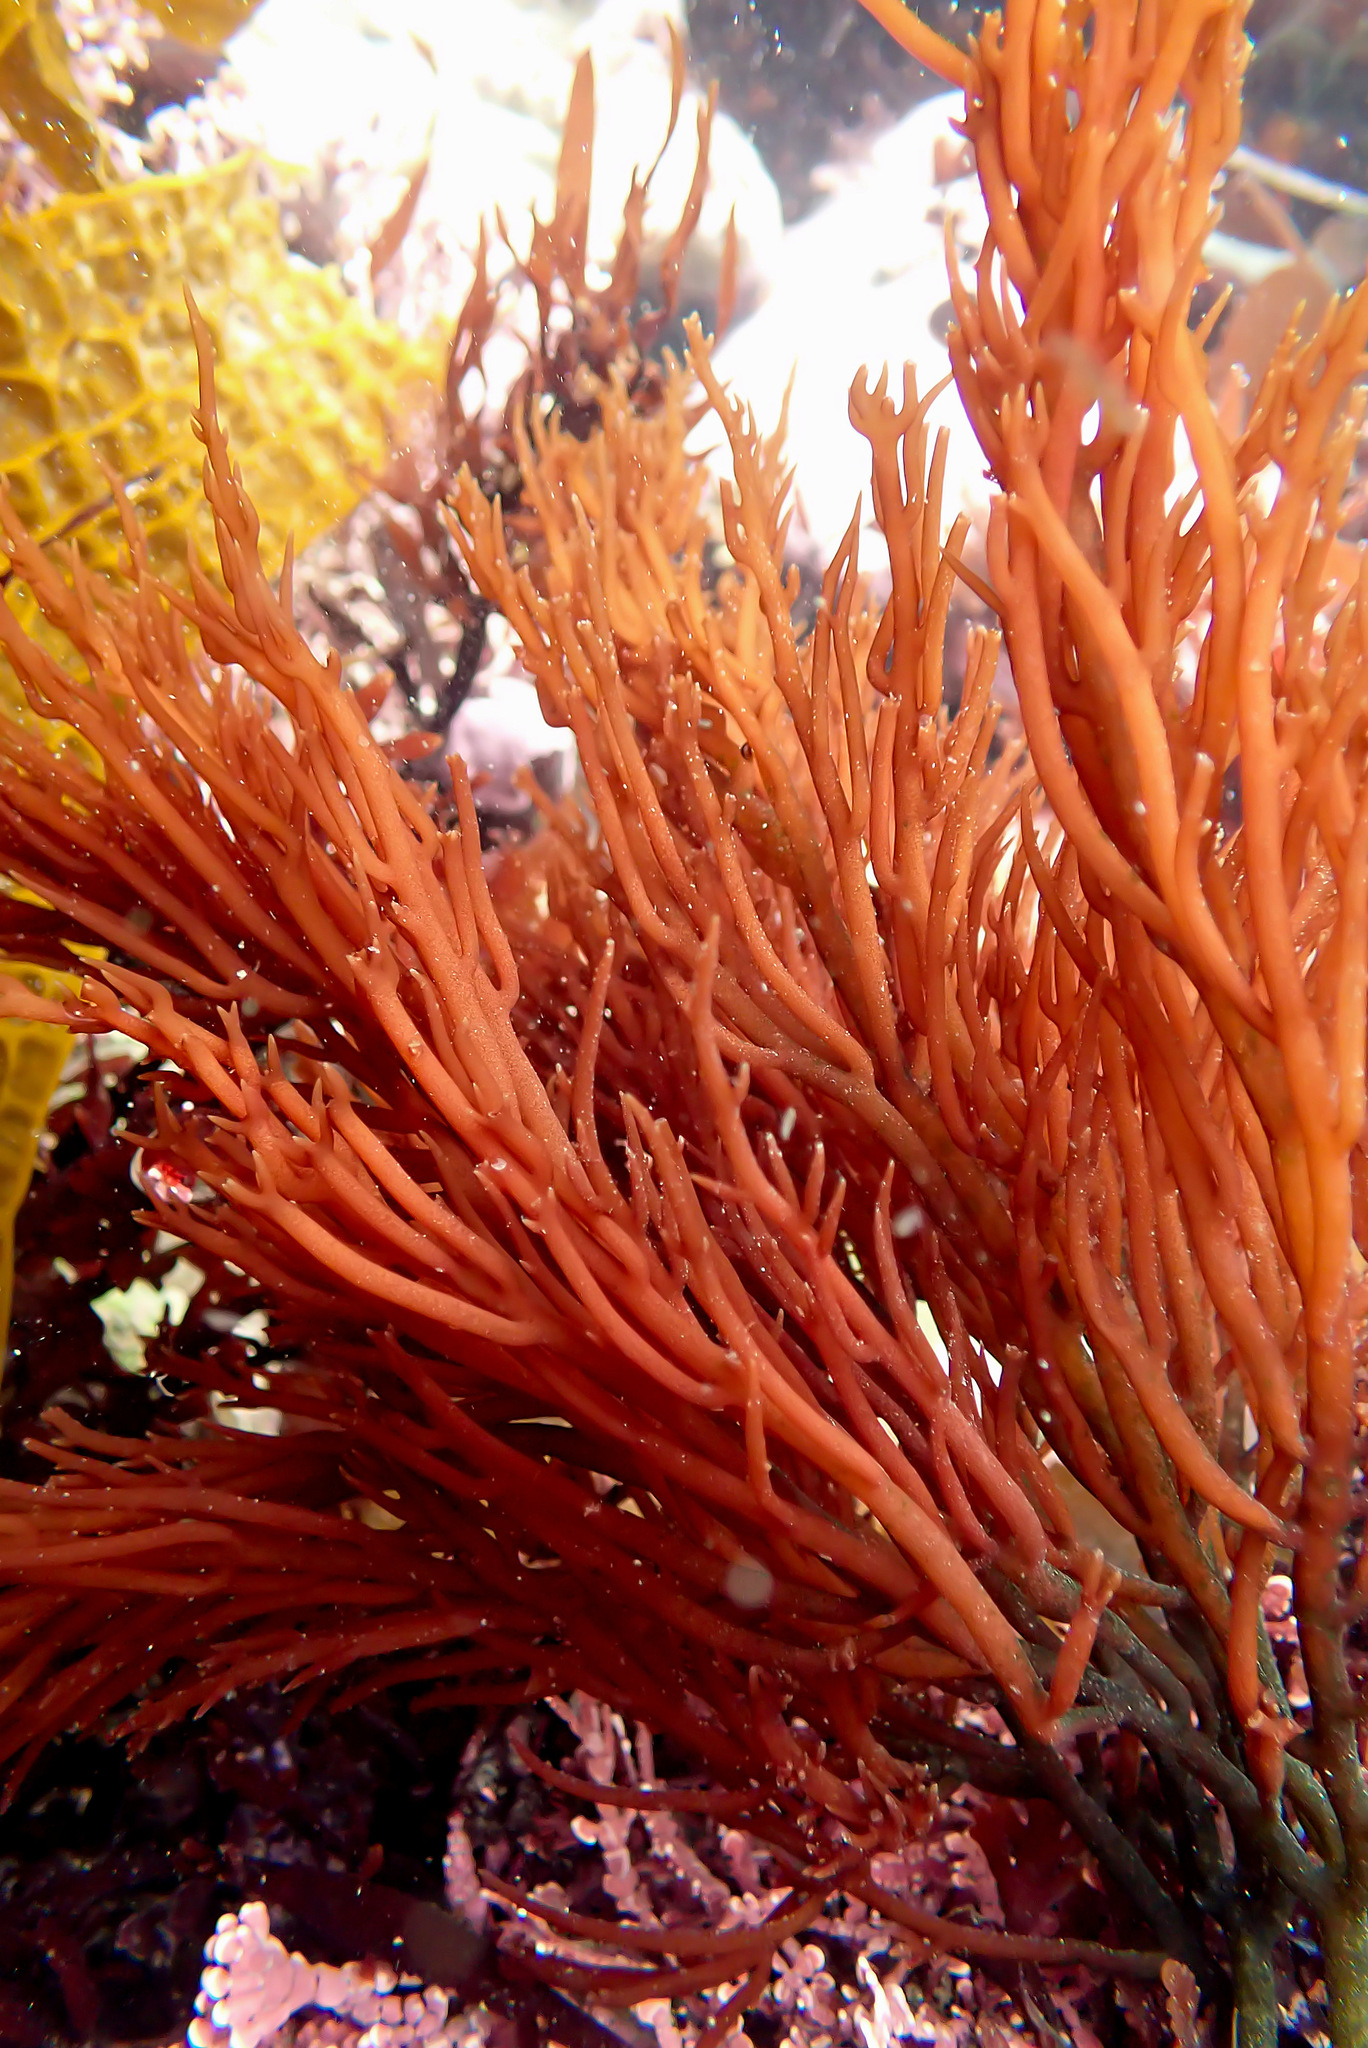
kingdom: Plantae
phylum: Rhodophyta
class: Florideophyceae
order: Gigartinales
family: Solieriaceae
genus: Sarcodiotheca
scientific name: Sarcodiotheca gaudichaudii
